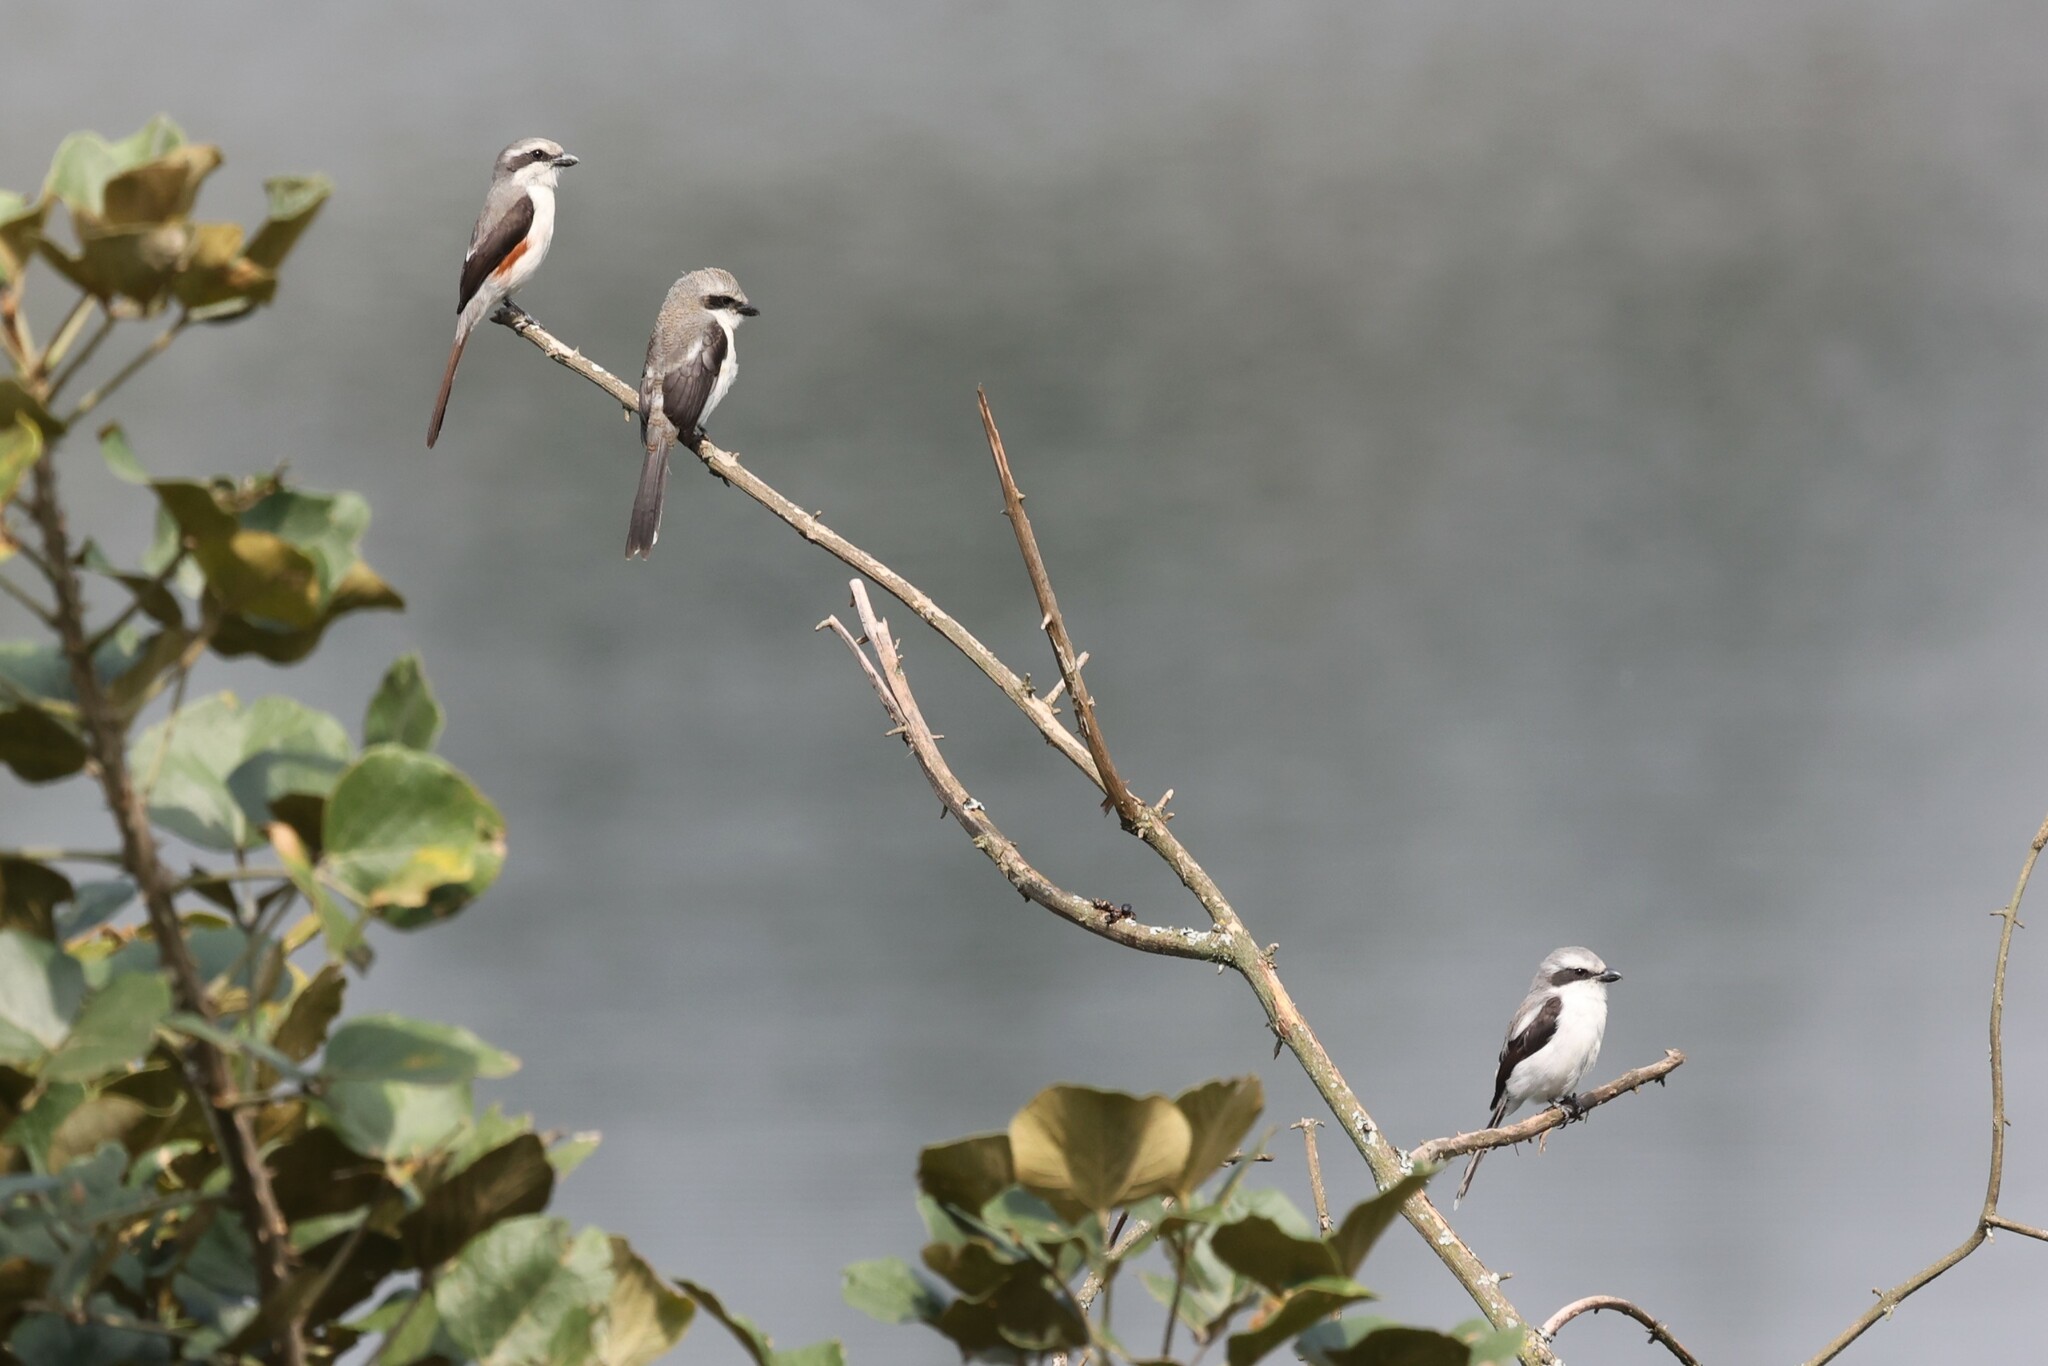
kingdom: Animalia
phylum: Chordata
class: Aves
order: Passeriformes
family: Laniidae
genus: Lanius
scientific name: Lanius mackinnoni
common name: Mackinnon's shrike
